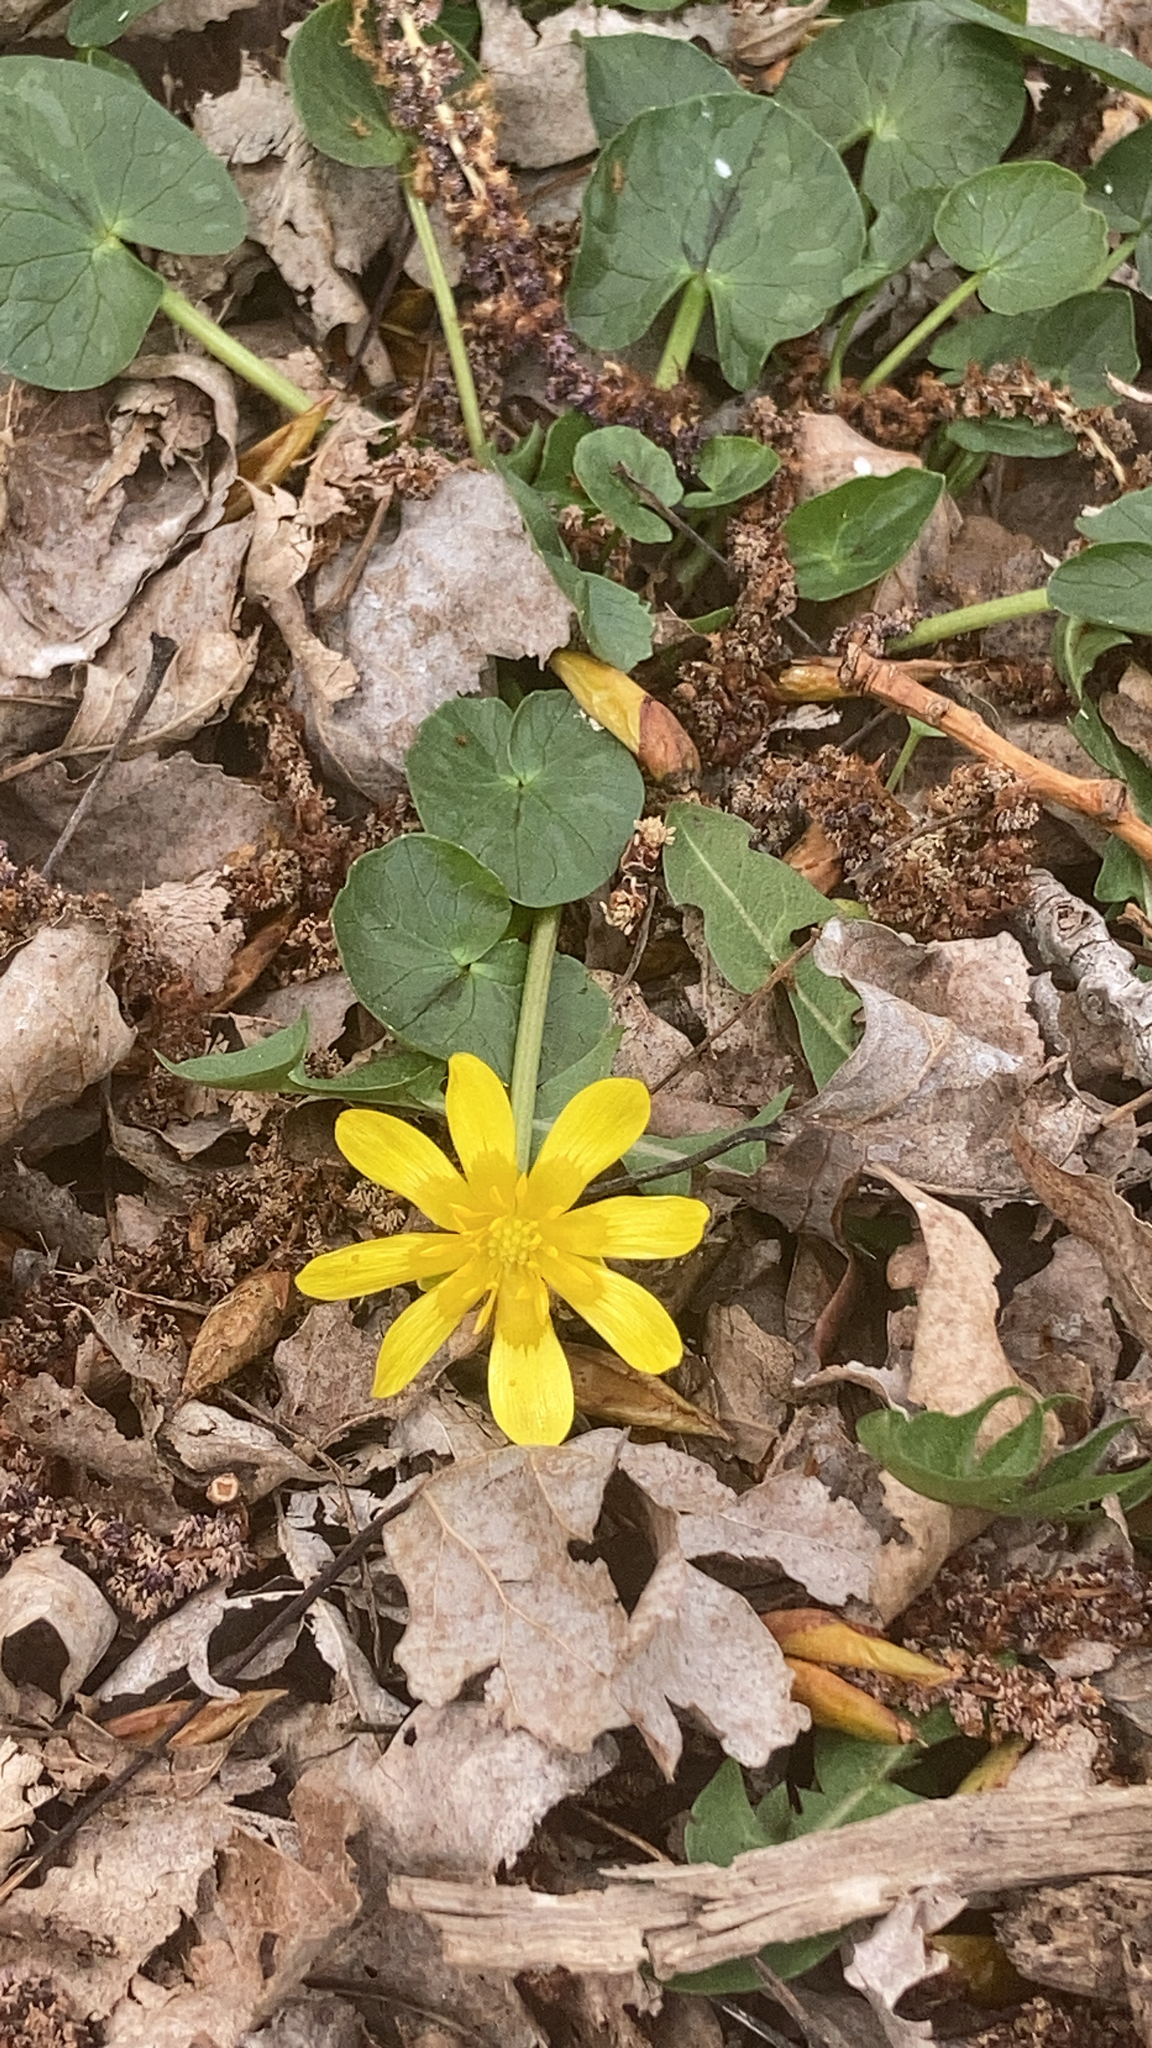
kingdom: Plantae
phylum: Tracheophyta
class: Magnoliopsida
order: Ranunculales
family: Ranunculaceae
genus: Ficaria
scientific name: Ficaria verna
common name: Lesser celandine
